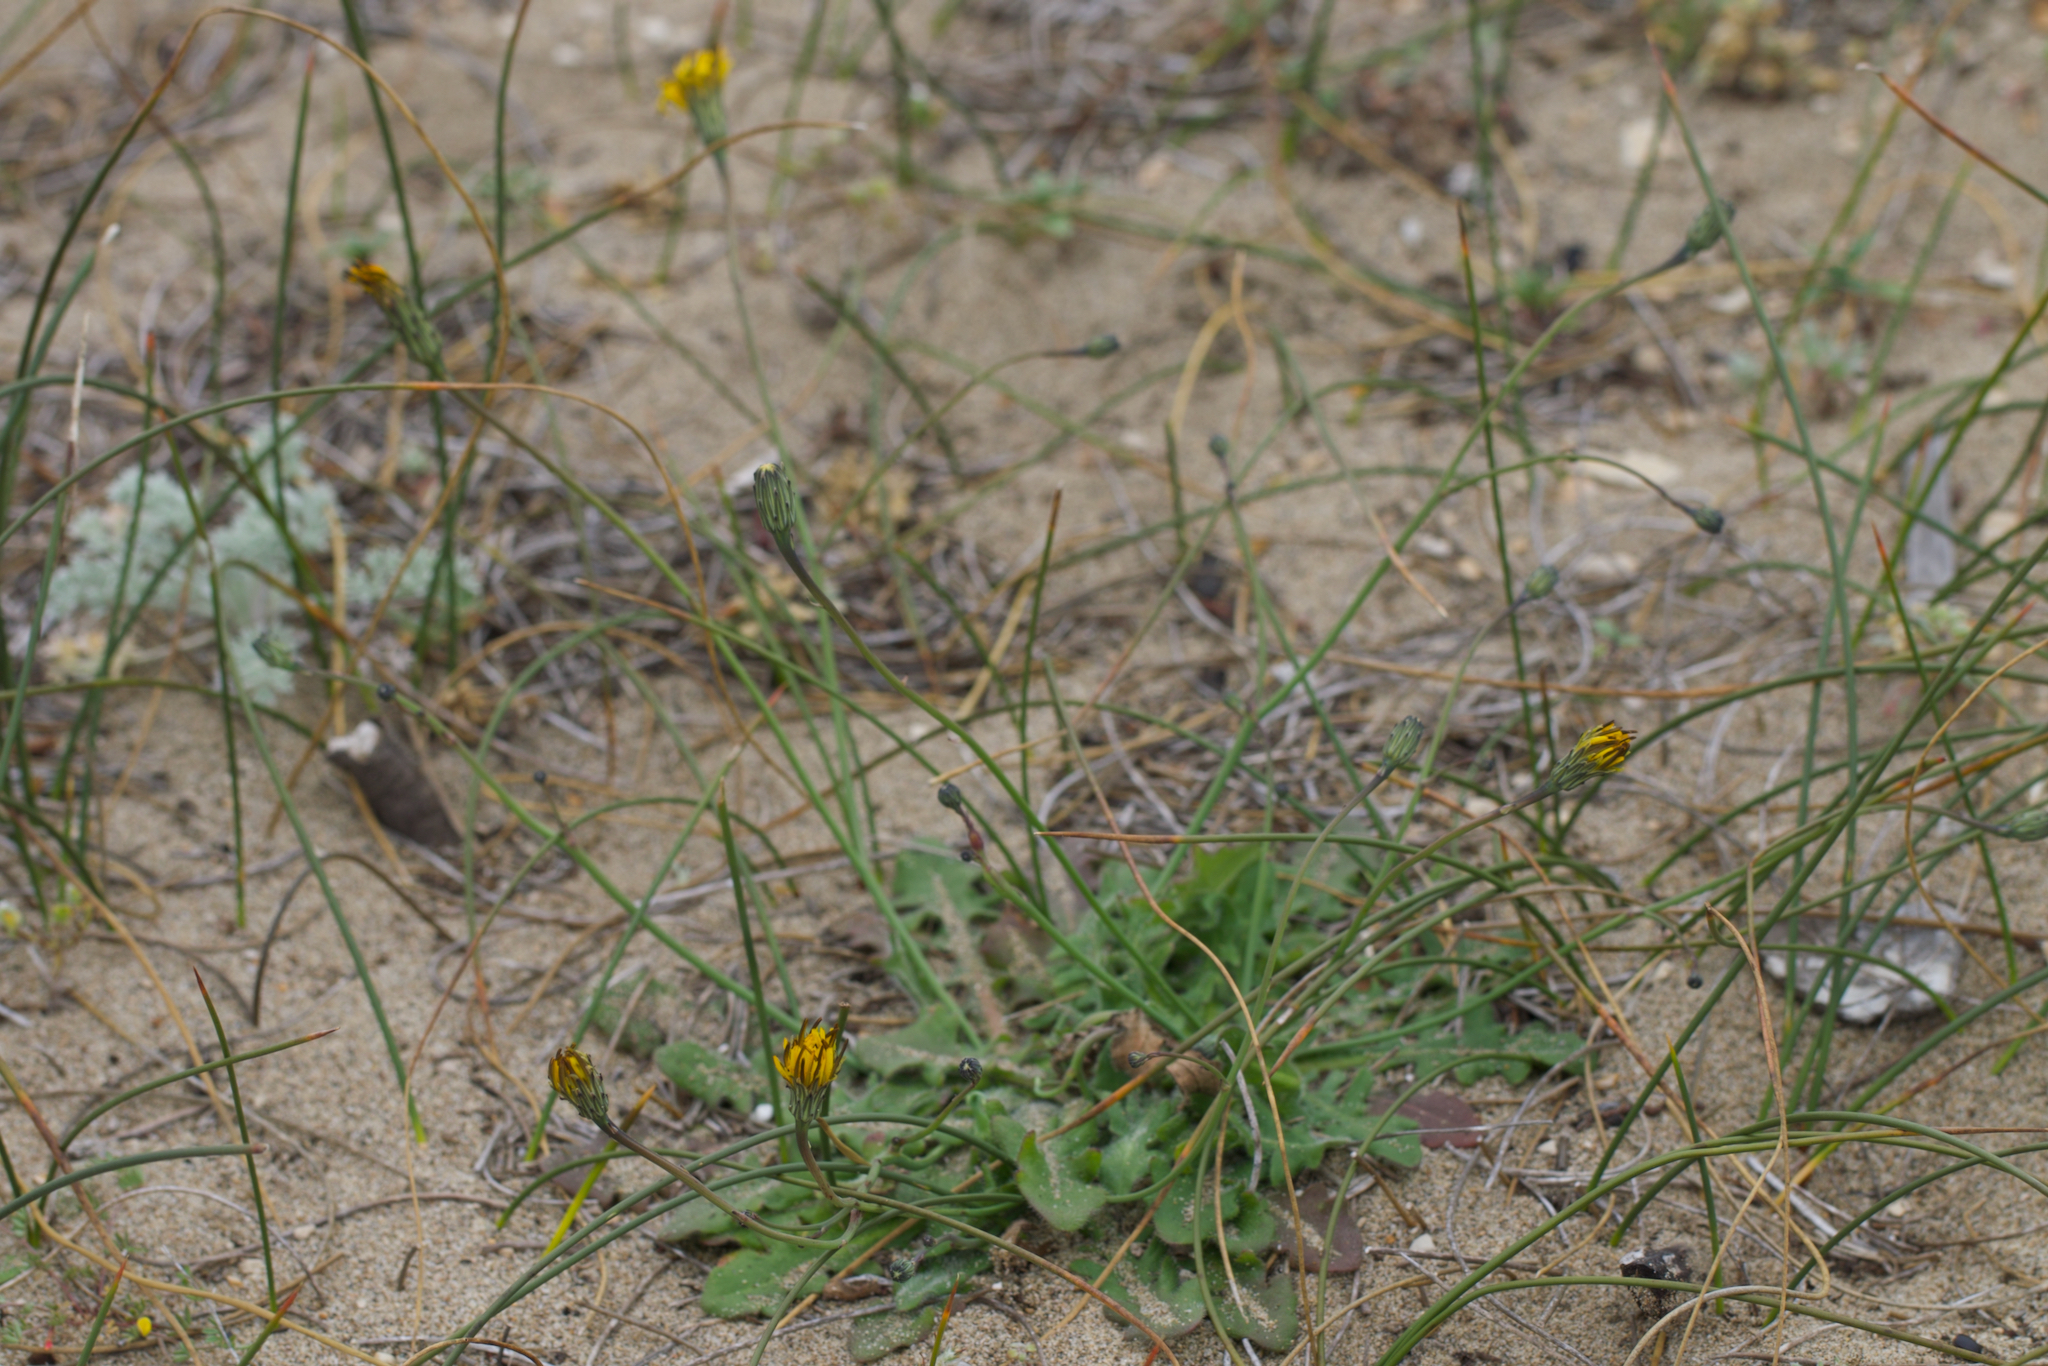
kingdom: Plantae
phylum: Tracheophyta
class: Magnoliopsida
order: Asterales
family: Asteraceae
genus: Hypochaeris
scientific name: Hypochaeris radicata
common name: Flatweed
